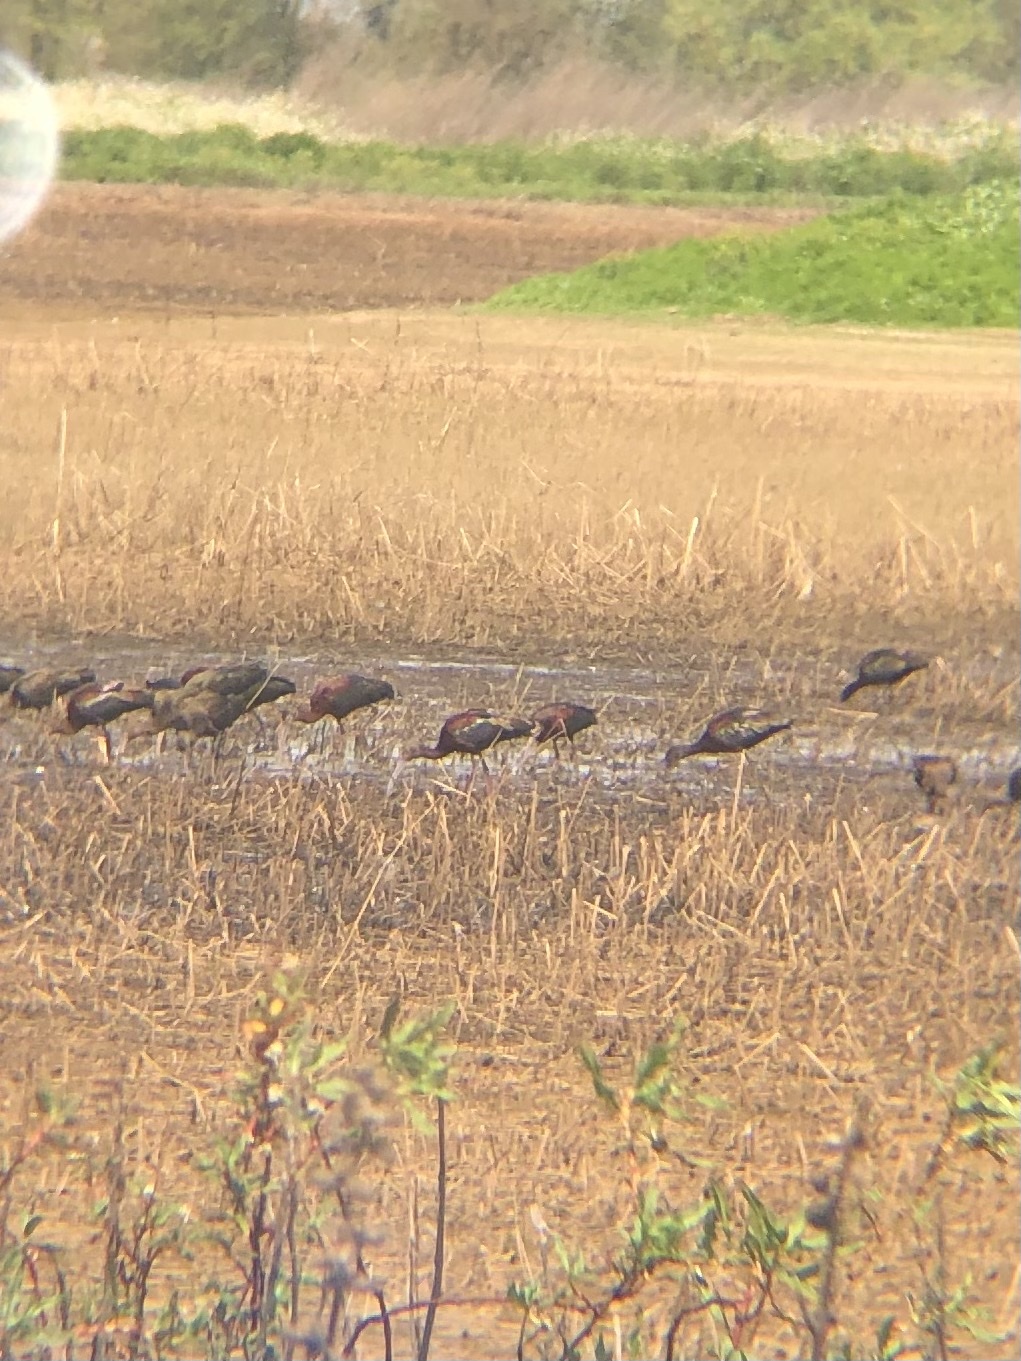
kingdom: Animalia
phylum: Chordata
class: Aves
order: Pelecaniformes
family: Threskiornithidae
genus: Plegadis
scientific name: Plegadis chihi
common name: White-faced ibis
